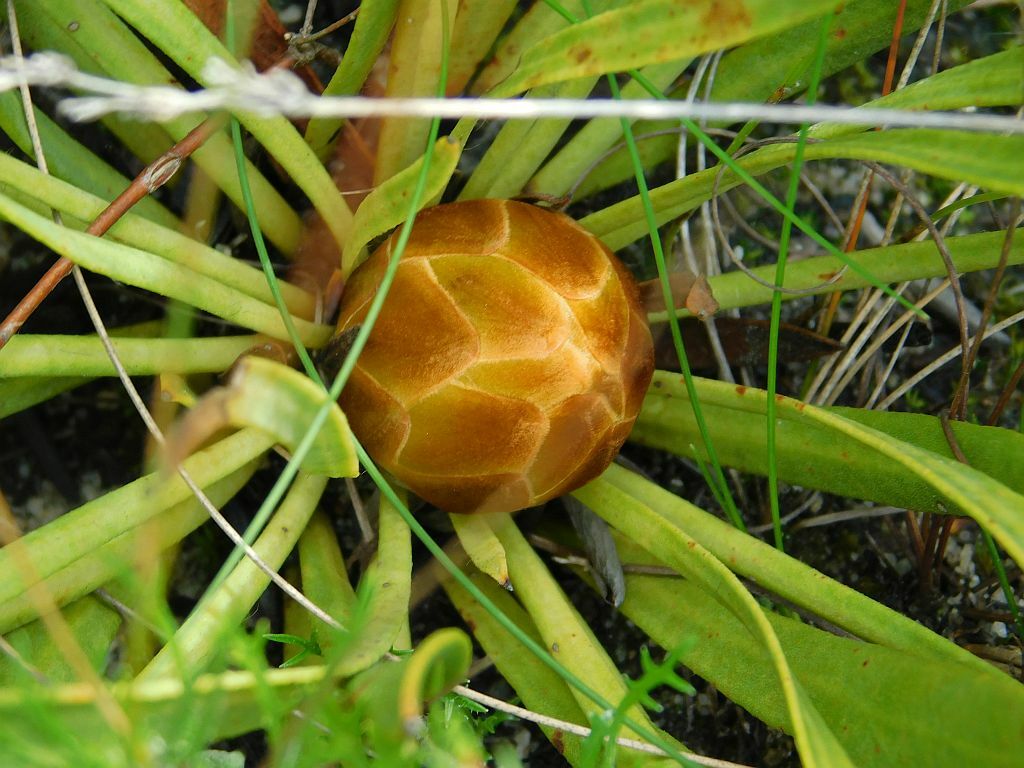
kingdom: Plantae
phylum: Tracheophyta
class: Magnoliopsida
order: Proteales
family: Proteaceae
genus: Protea
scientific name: Protea scabra
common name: Sandpaper-leaf sugarbush
